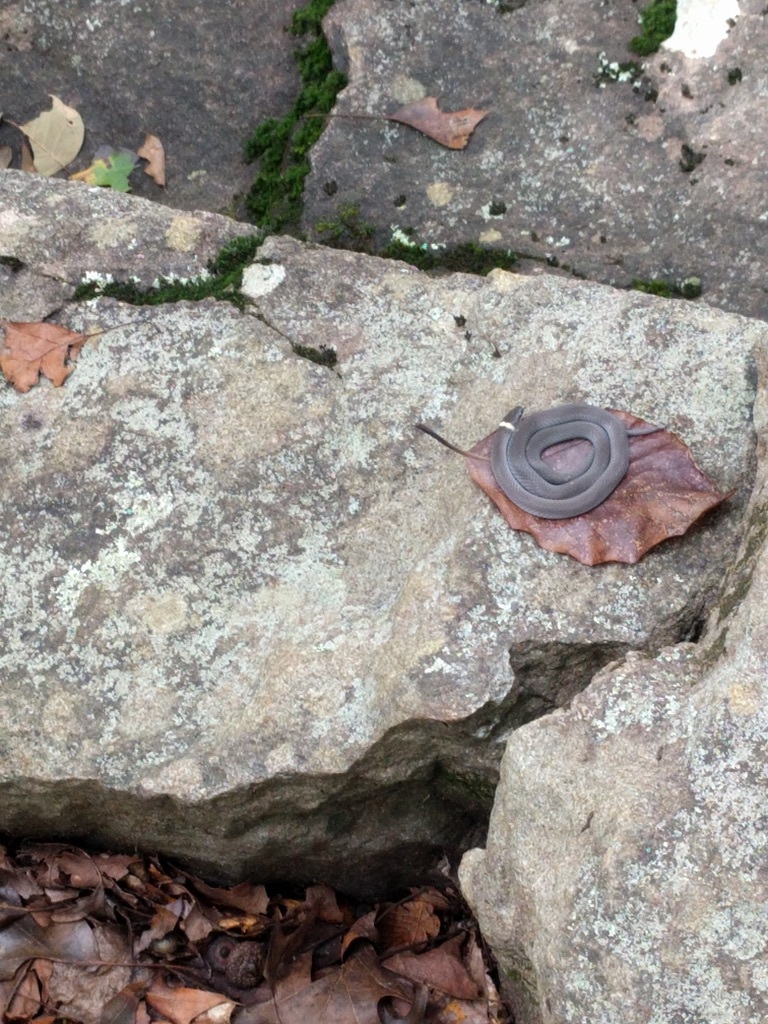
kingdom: Animalia
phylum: Chordata
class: Squamata
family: Colubridae
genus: Diadophis
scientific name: Diadophis punctatus
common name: Ringneck snake
